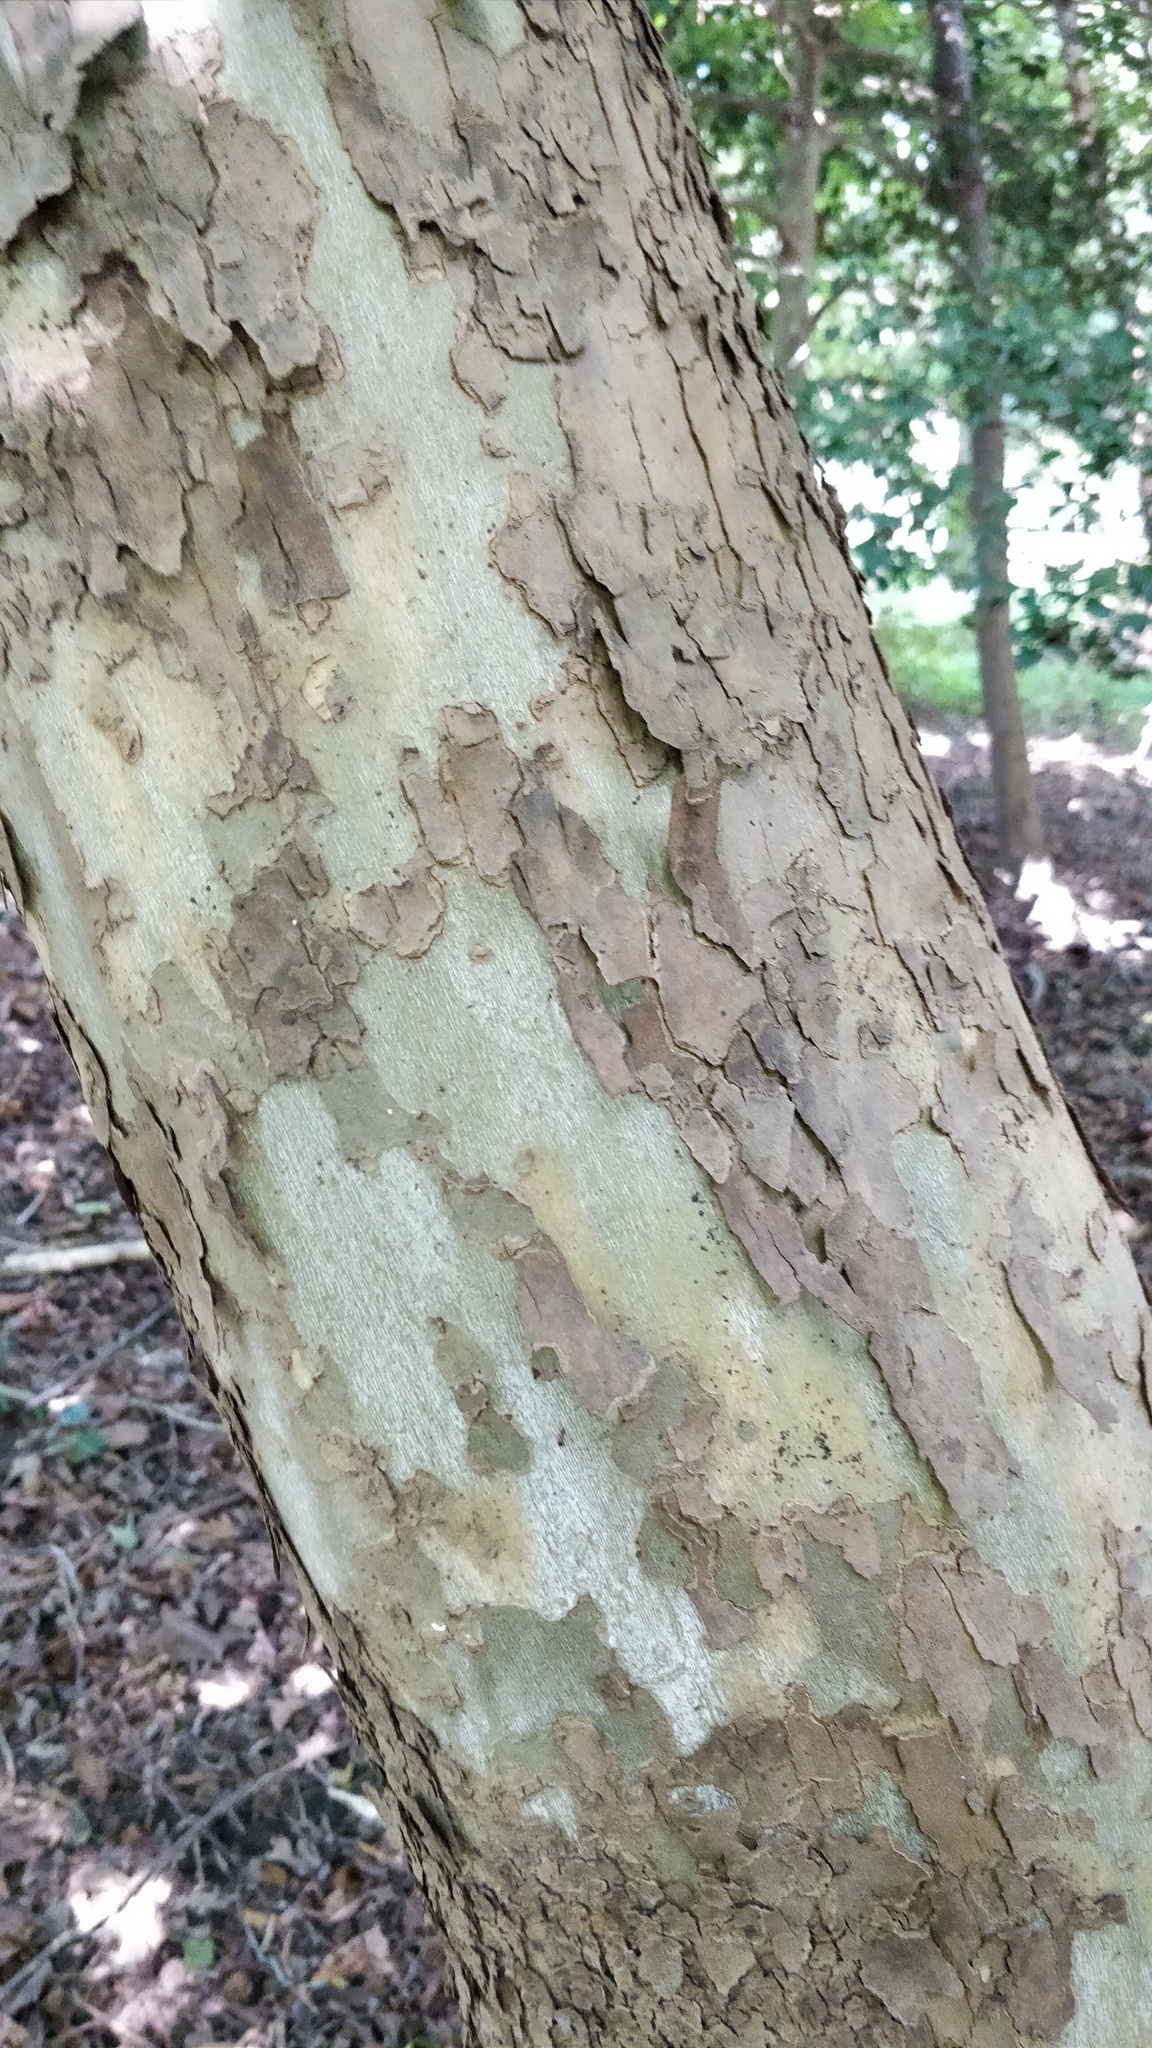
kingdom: Plantae
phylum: Tracheophyta
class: Magnoliopsida
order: Proteales
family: Platanaceae
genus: Platanus
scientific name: Platanus occidentalis
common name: American sycamore
